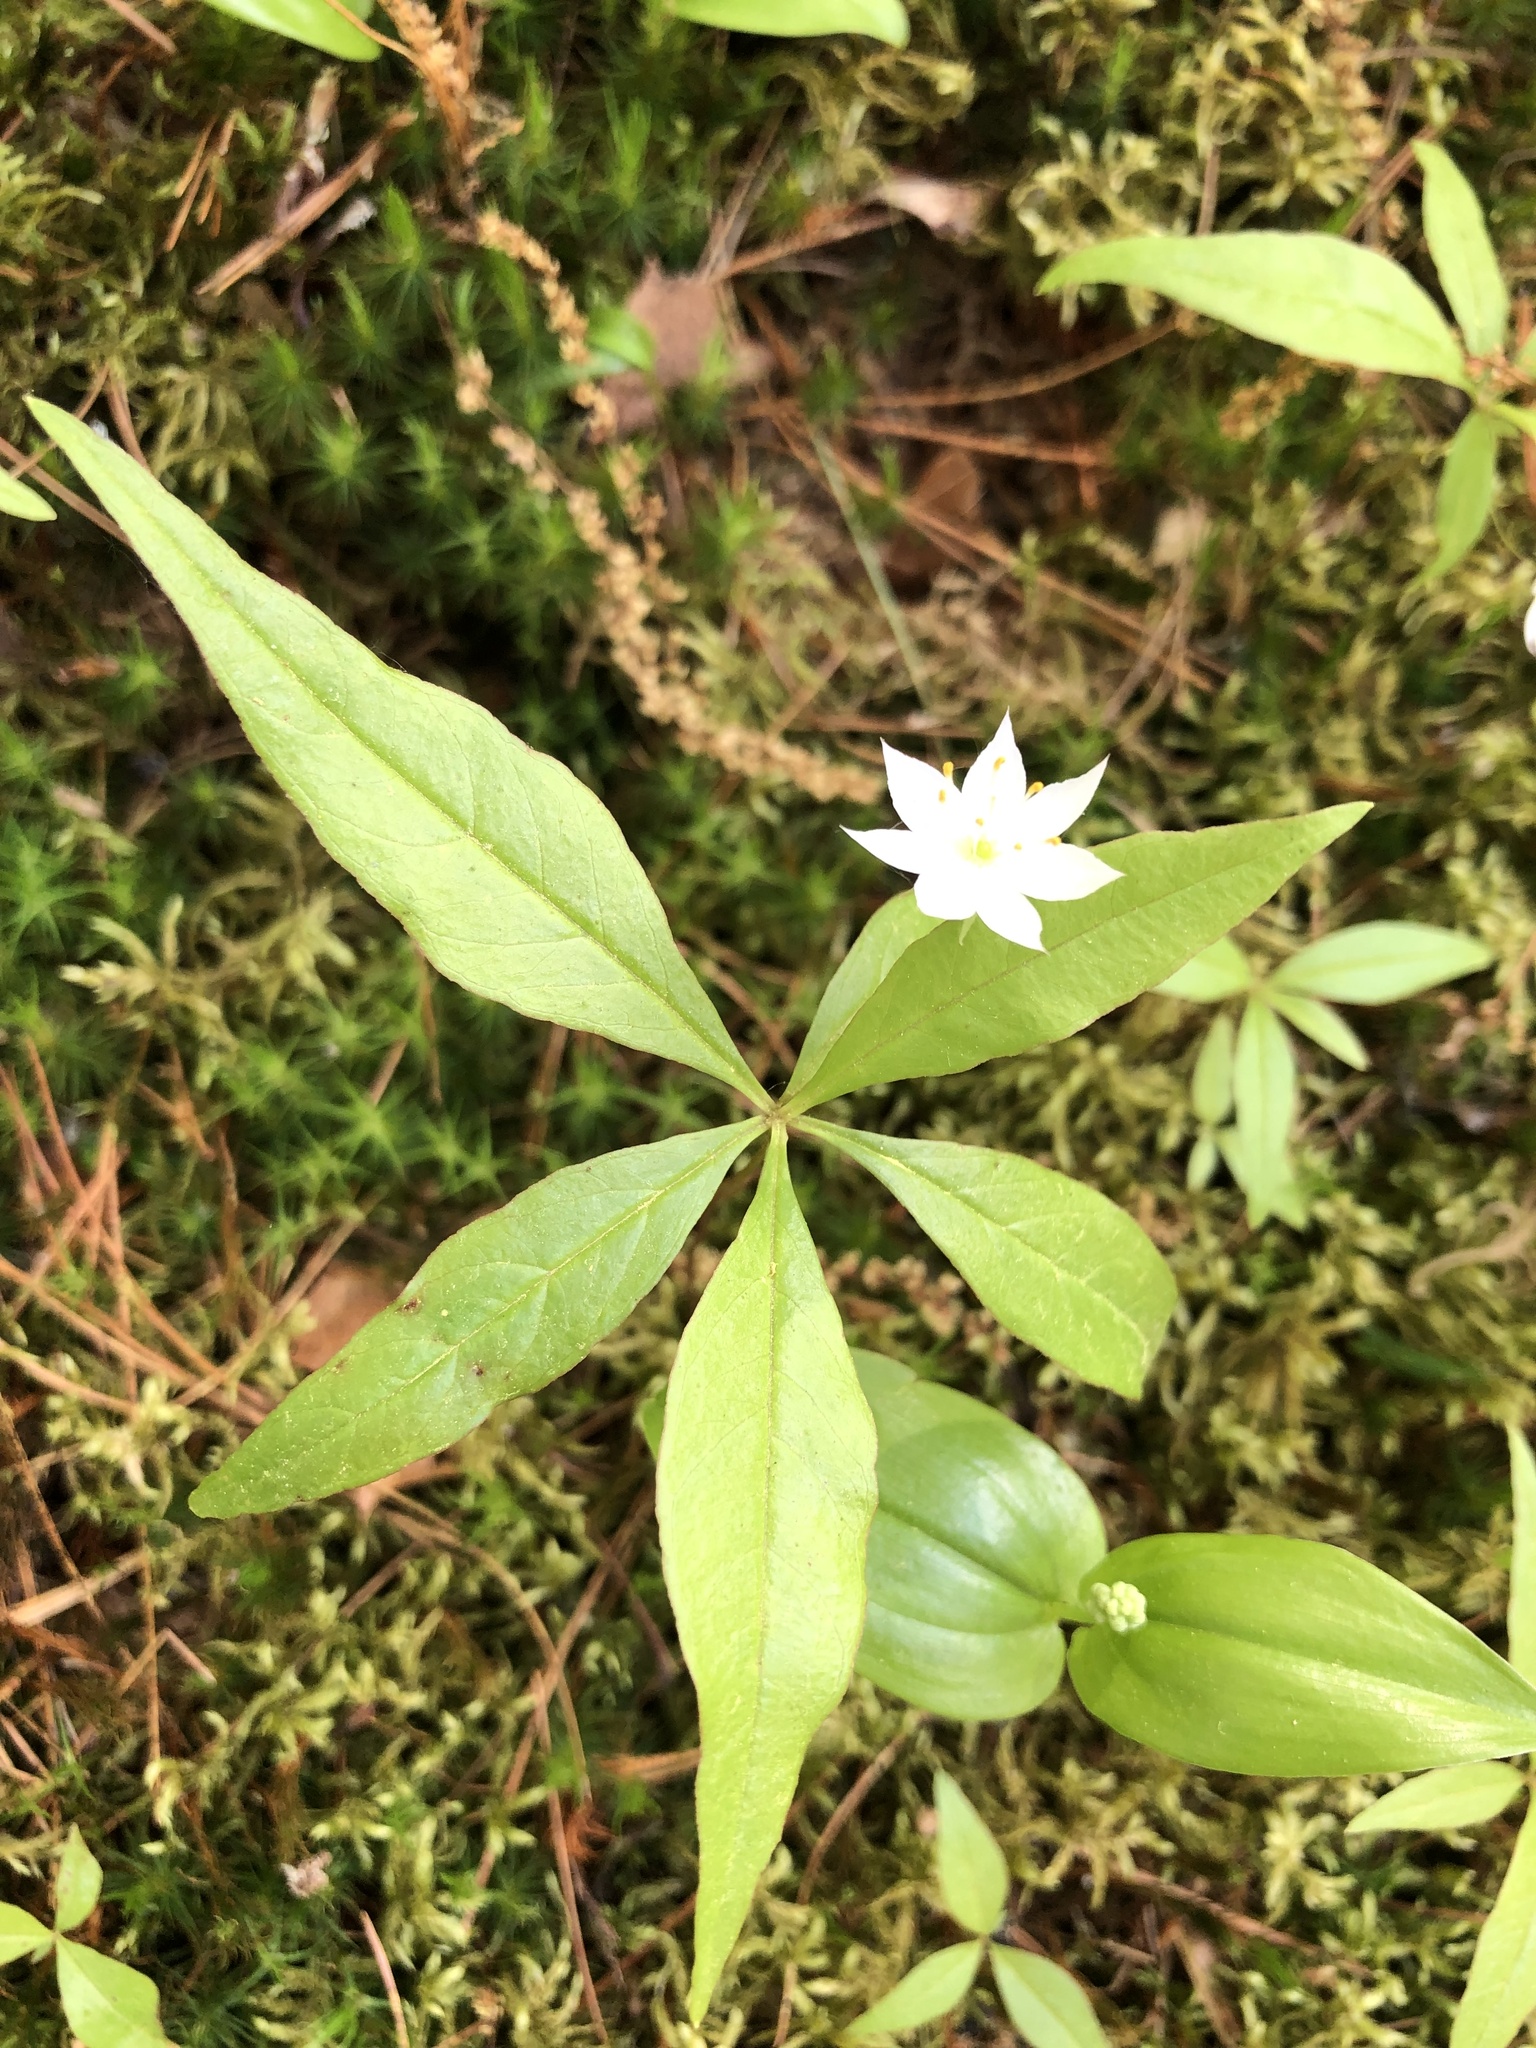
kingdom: Plantae
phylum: Tracheophyta
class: Magnoliopsida
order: Ericales
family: Primulaceae
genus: Lysimachia
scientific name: Lysimachia borealis
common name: American starflower
